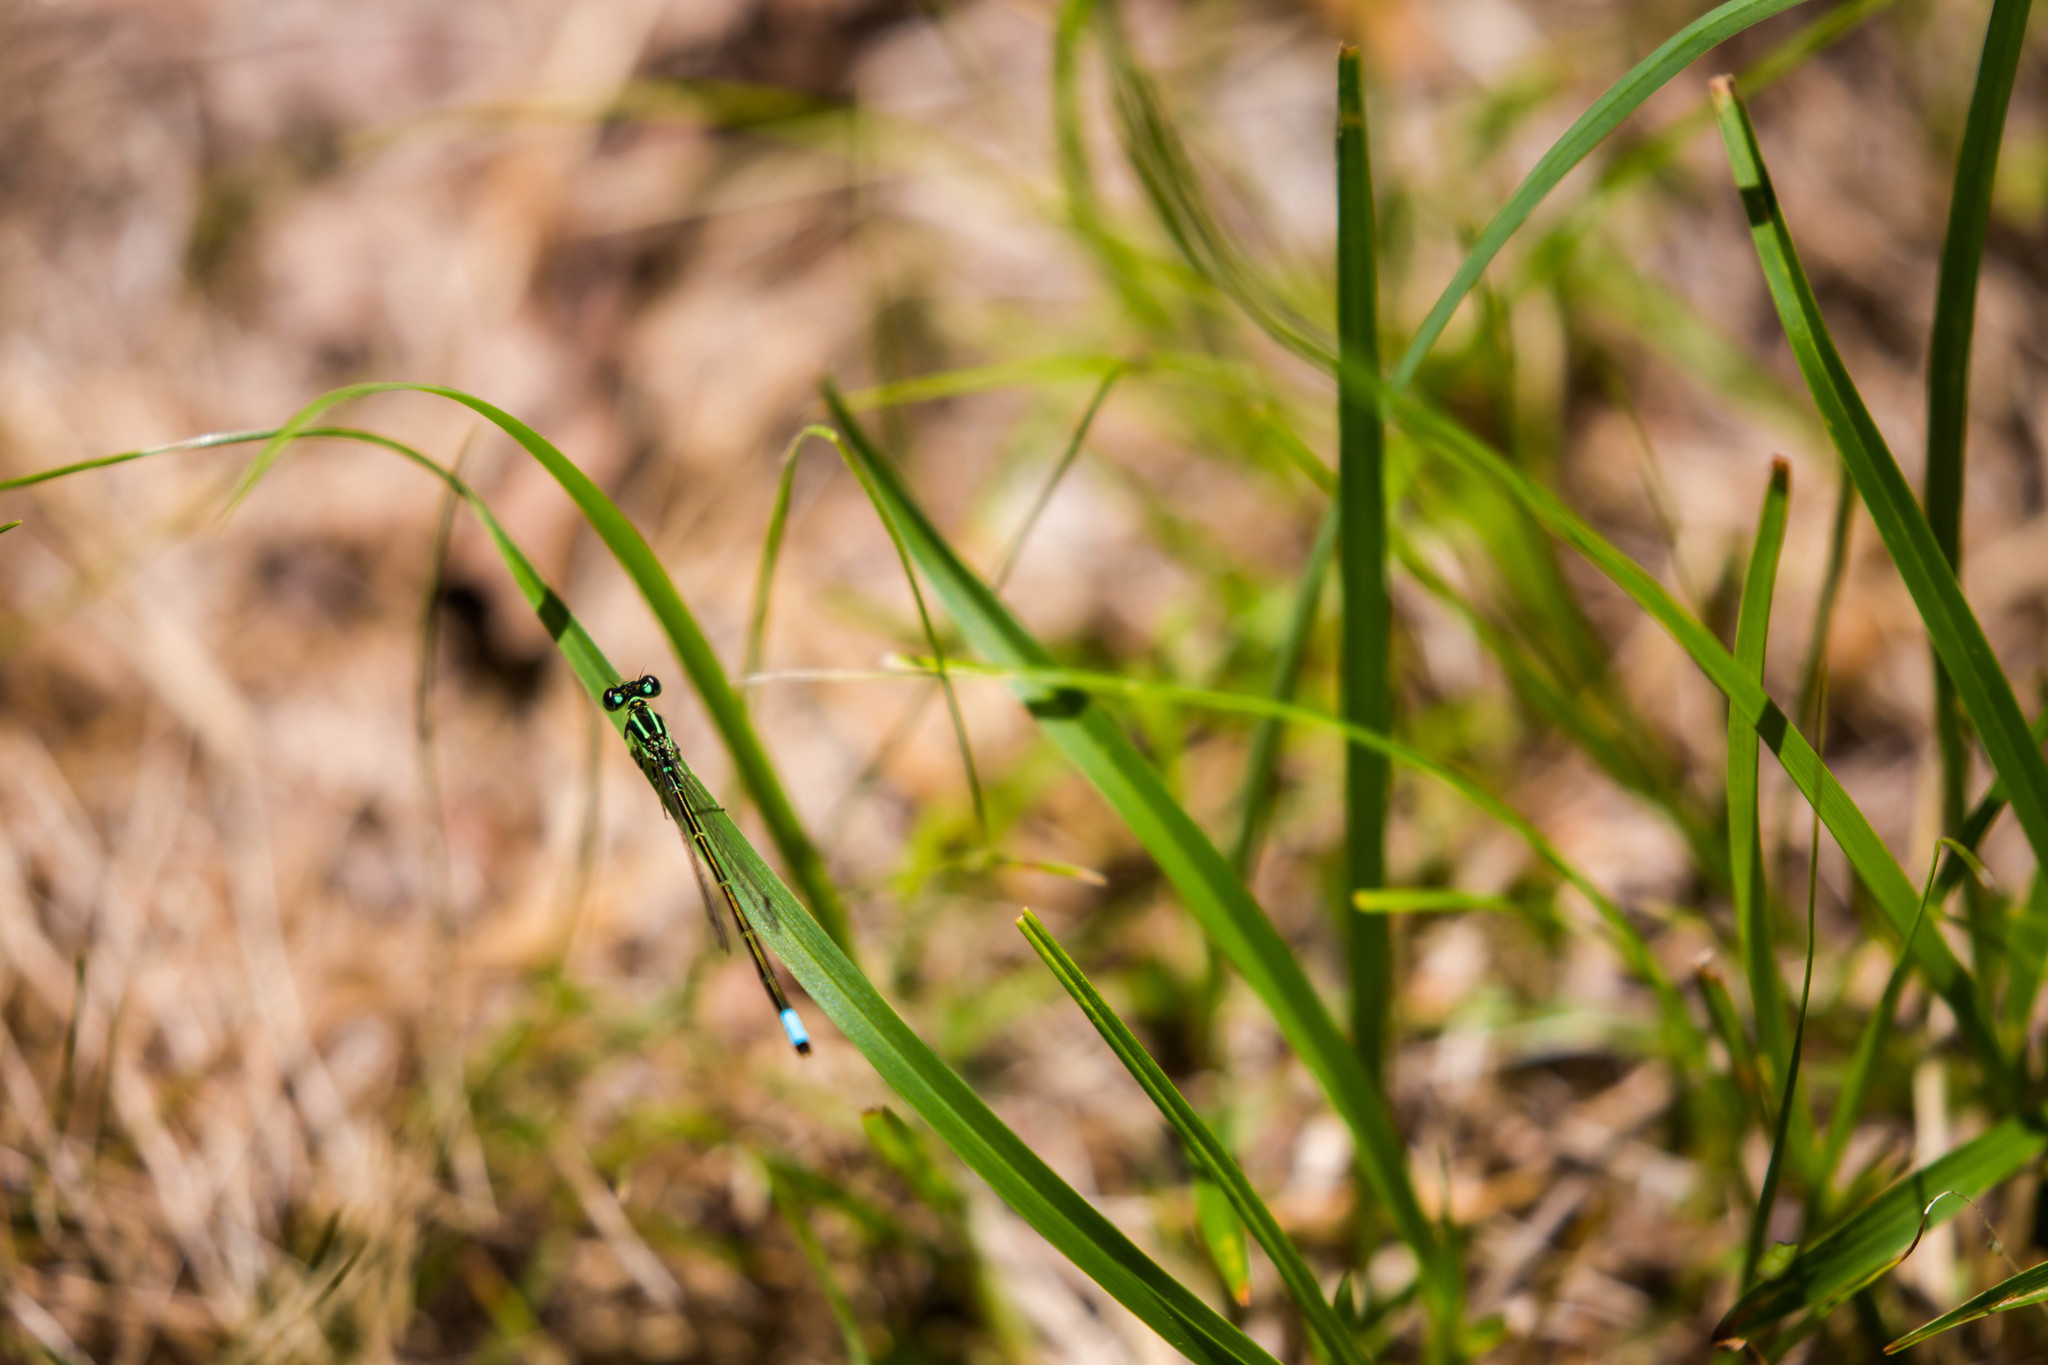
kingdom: Animalia
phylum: Arthropoda
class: Insecta
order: Odonata
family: Coenagrionidae
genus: Ischnura
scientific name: Ischnura verticalis
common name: Eastern forktail
